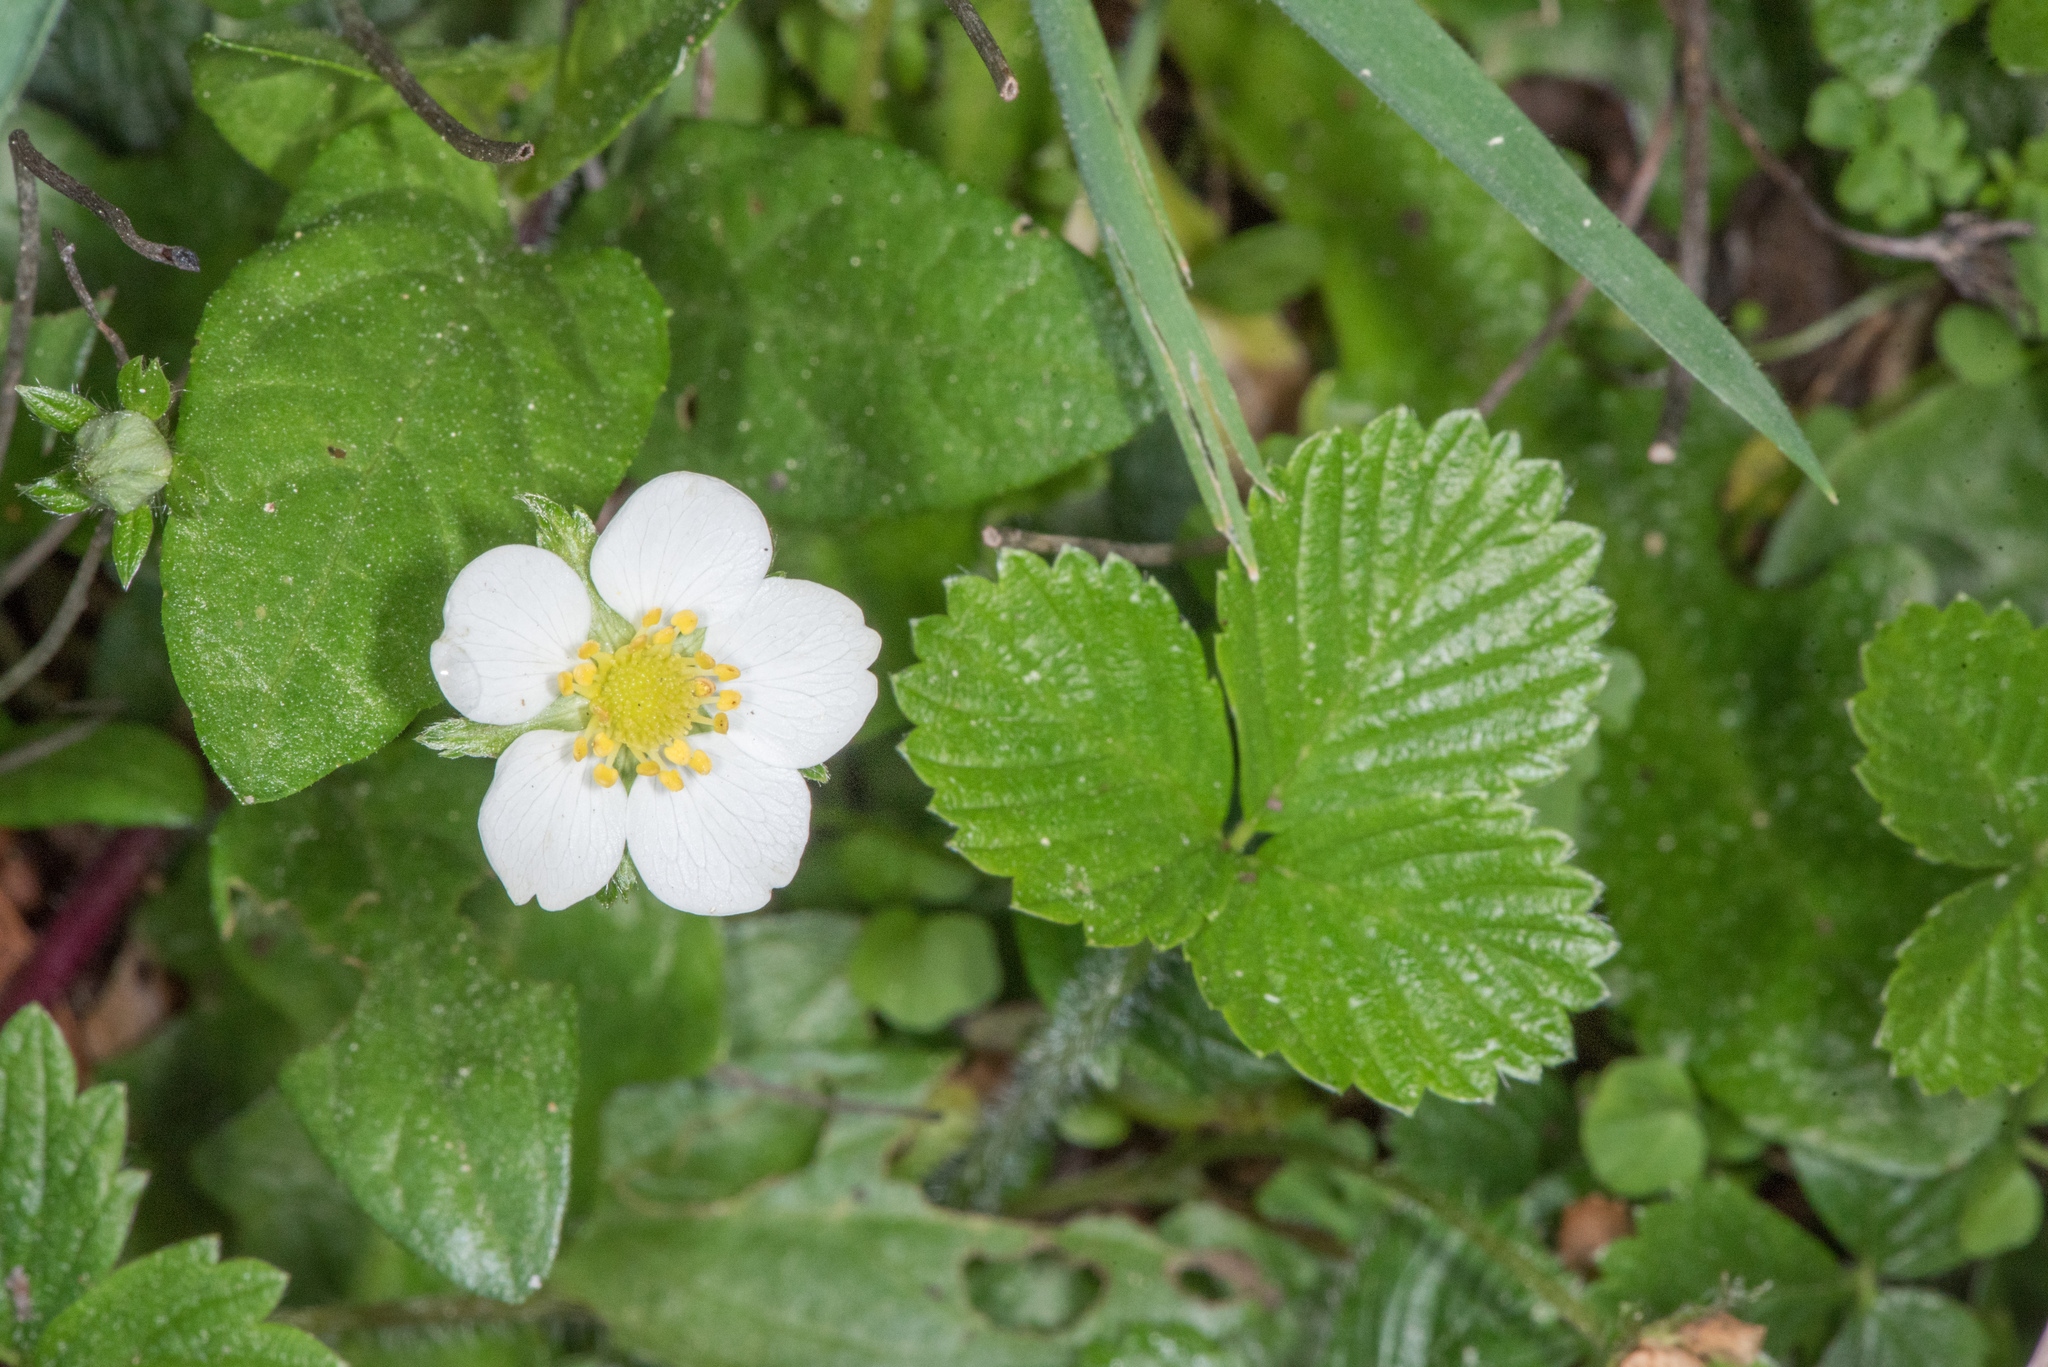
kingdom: Plantae
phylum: Tracheophyta
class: Magnoliopsida
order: Rosales
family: Rosaceae
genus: Fragaria
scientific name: Fragaria chiloensis
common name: Beach strawberry
